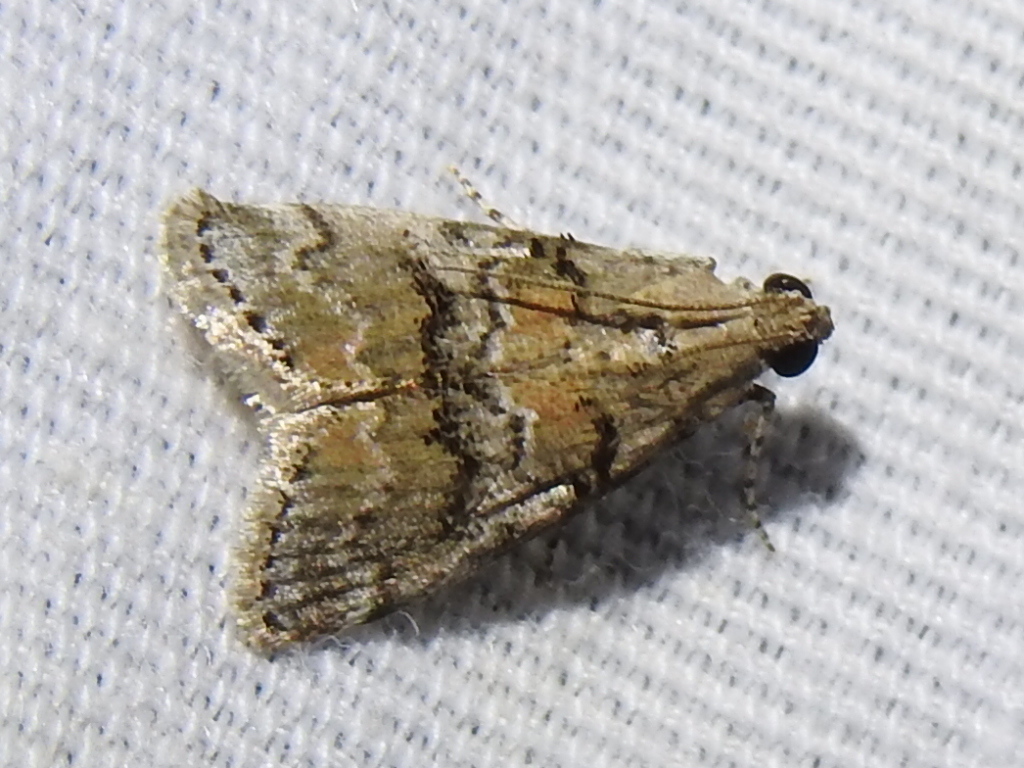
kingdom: Animalia
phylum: Arthropoda
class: Insecta
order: Lepidoptera
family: Pyralidae
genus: Pococera
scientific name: Pococera texanella
